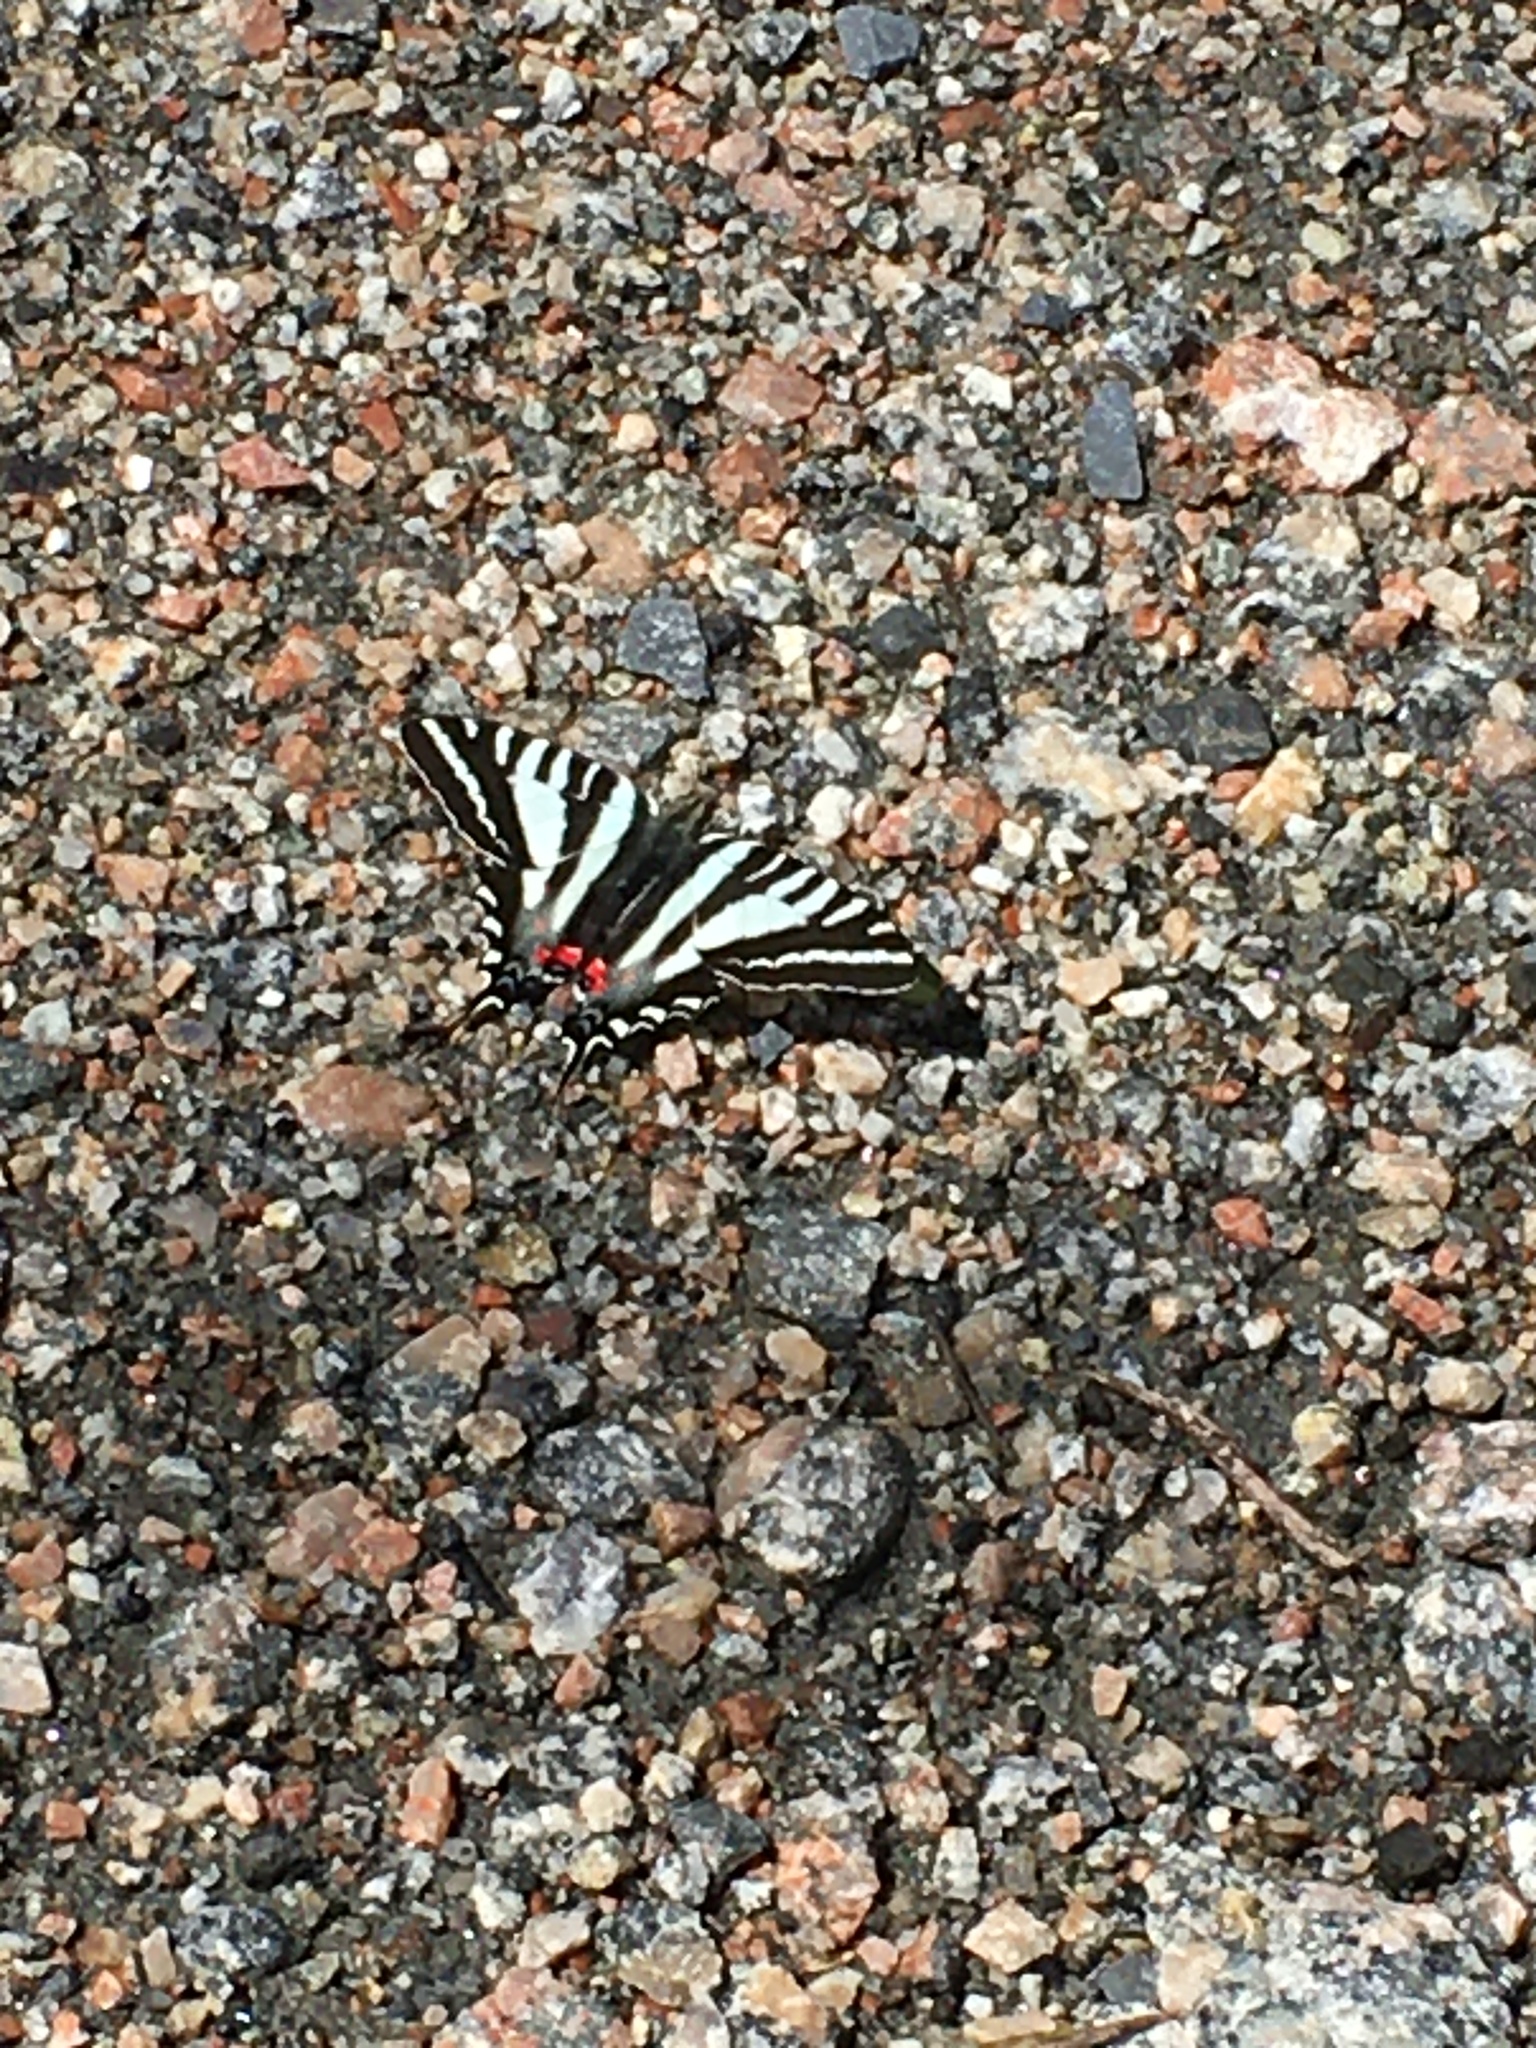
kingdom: Animalia
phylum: Arthropoda
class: Insecta
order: Lepidoptera
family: Papilionidae
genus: Protographium
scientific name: Protographium marcellus
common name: Zebra swallowtail
